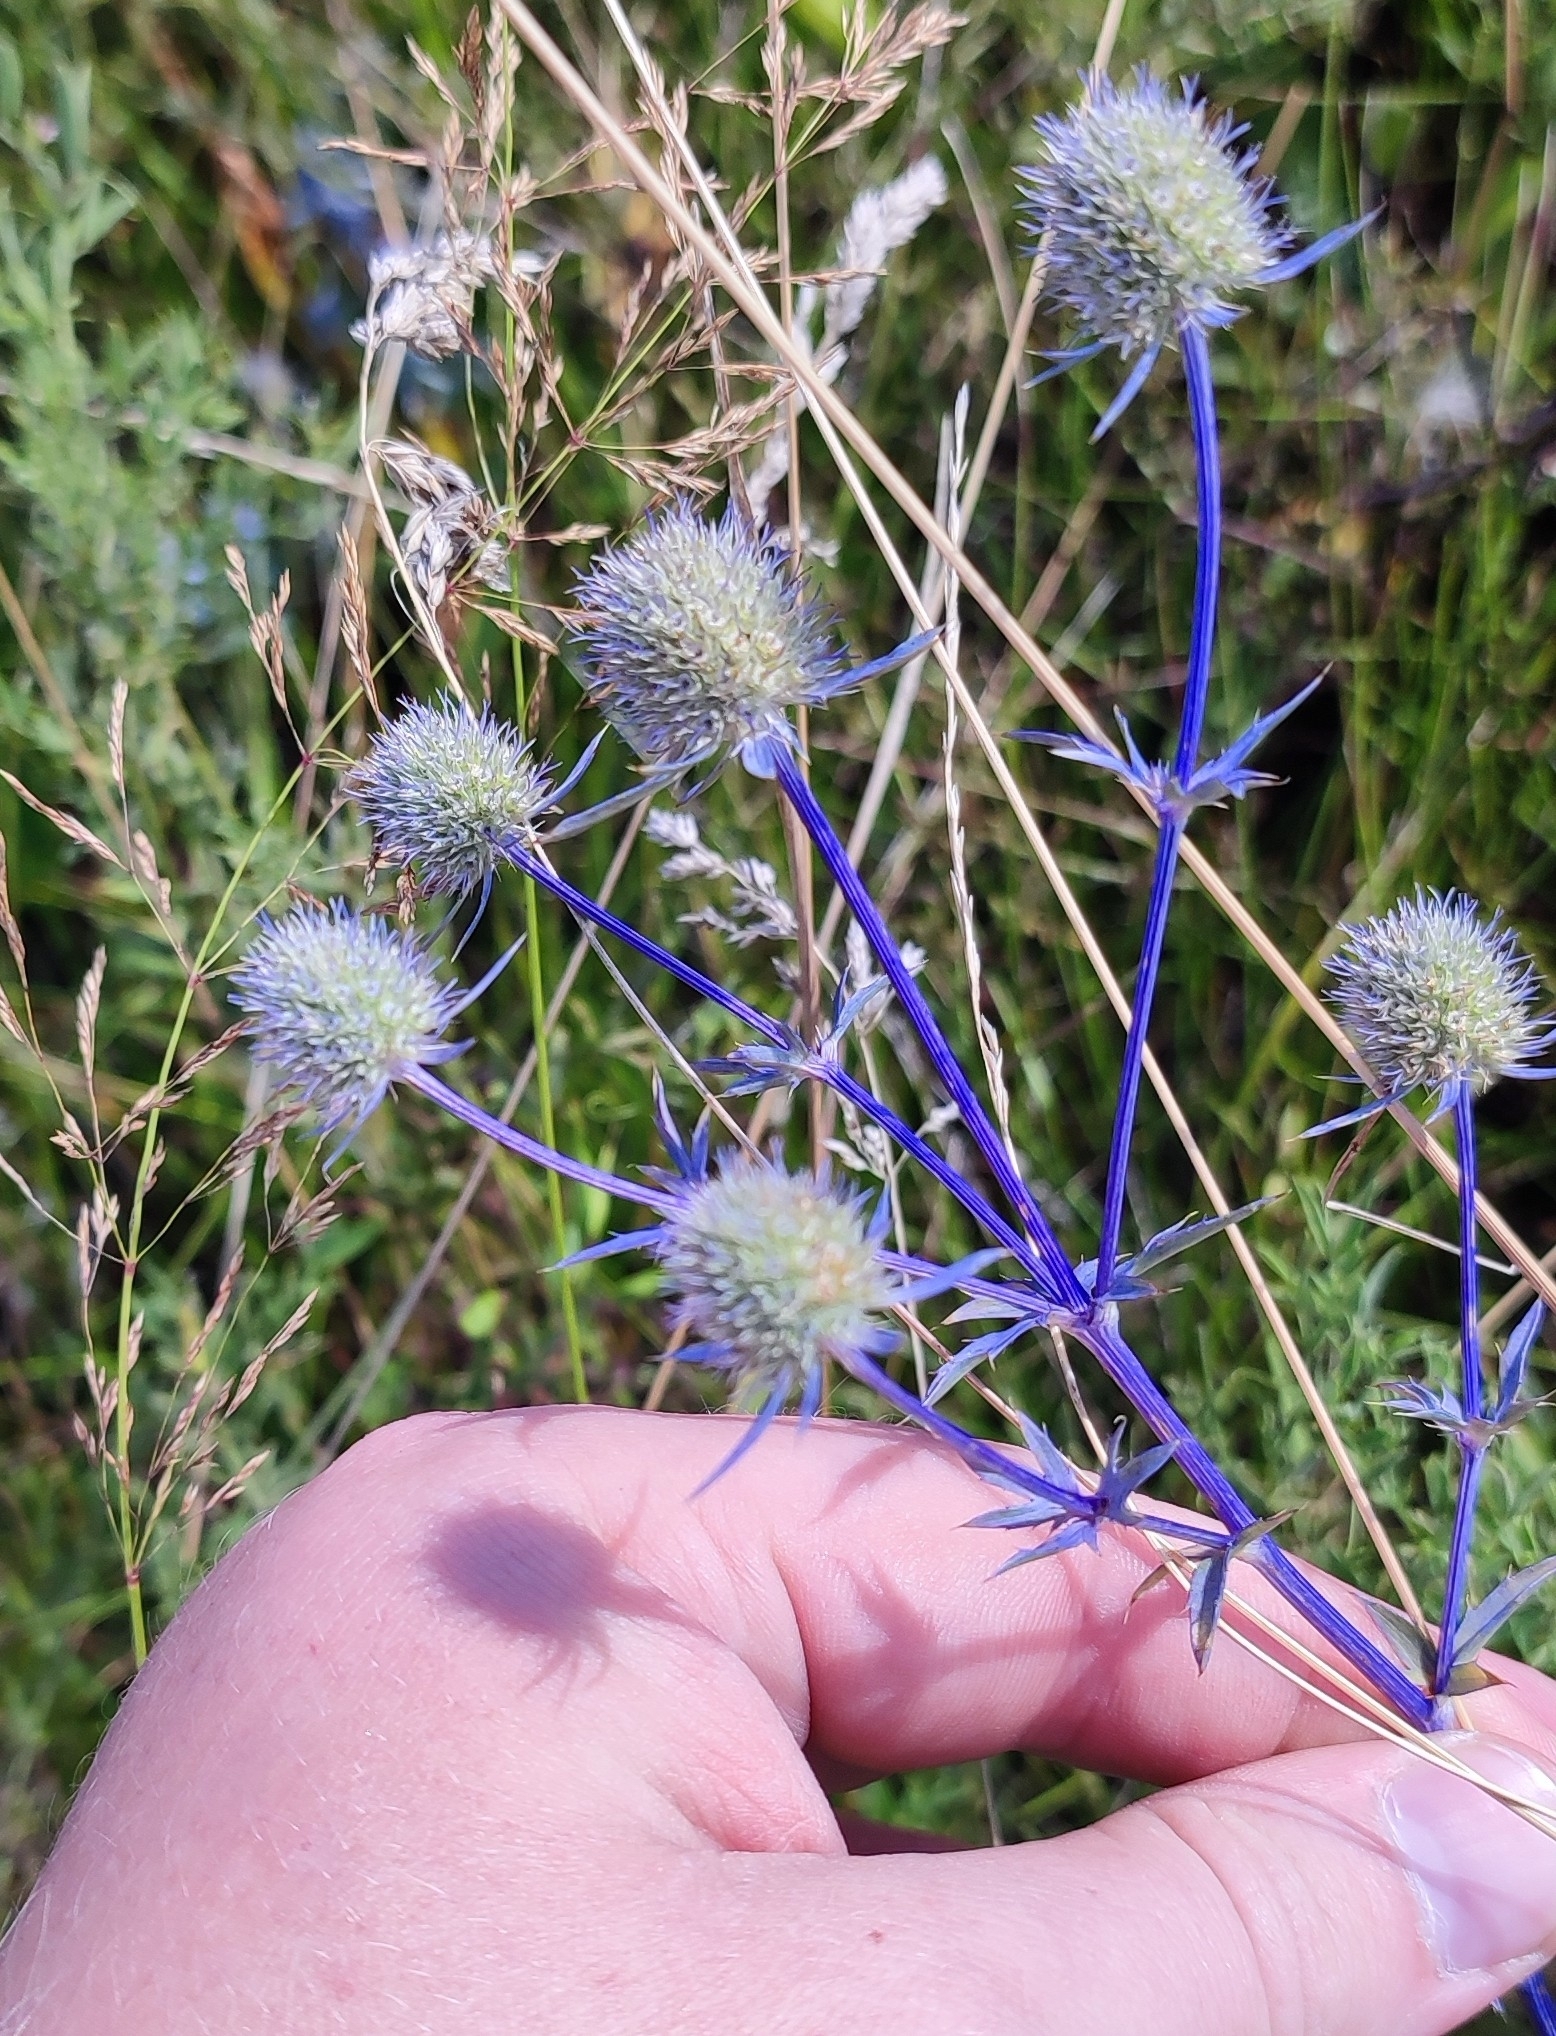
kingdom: Plantae
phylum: Tracheophyta
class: Magnoliopsida
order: Apiales
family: Apiaceae
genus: Eryngium
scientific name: Eryngium planum
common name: Blue eryngo
